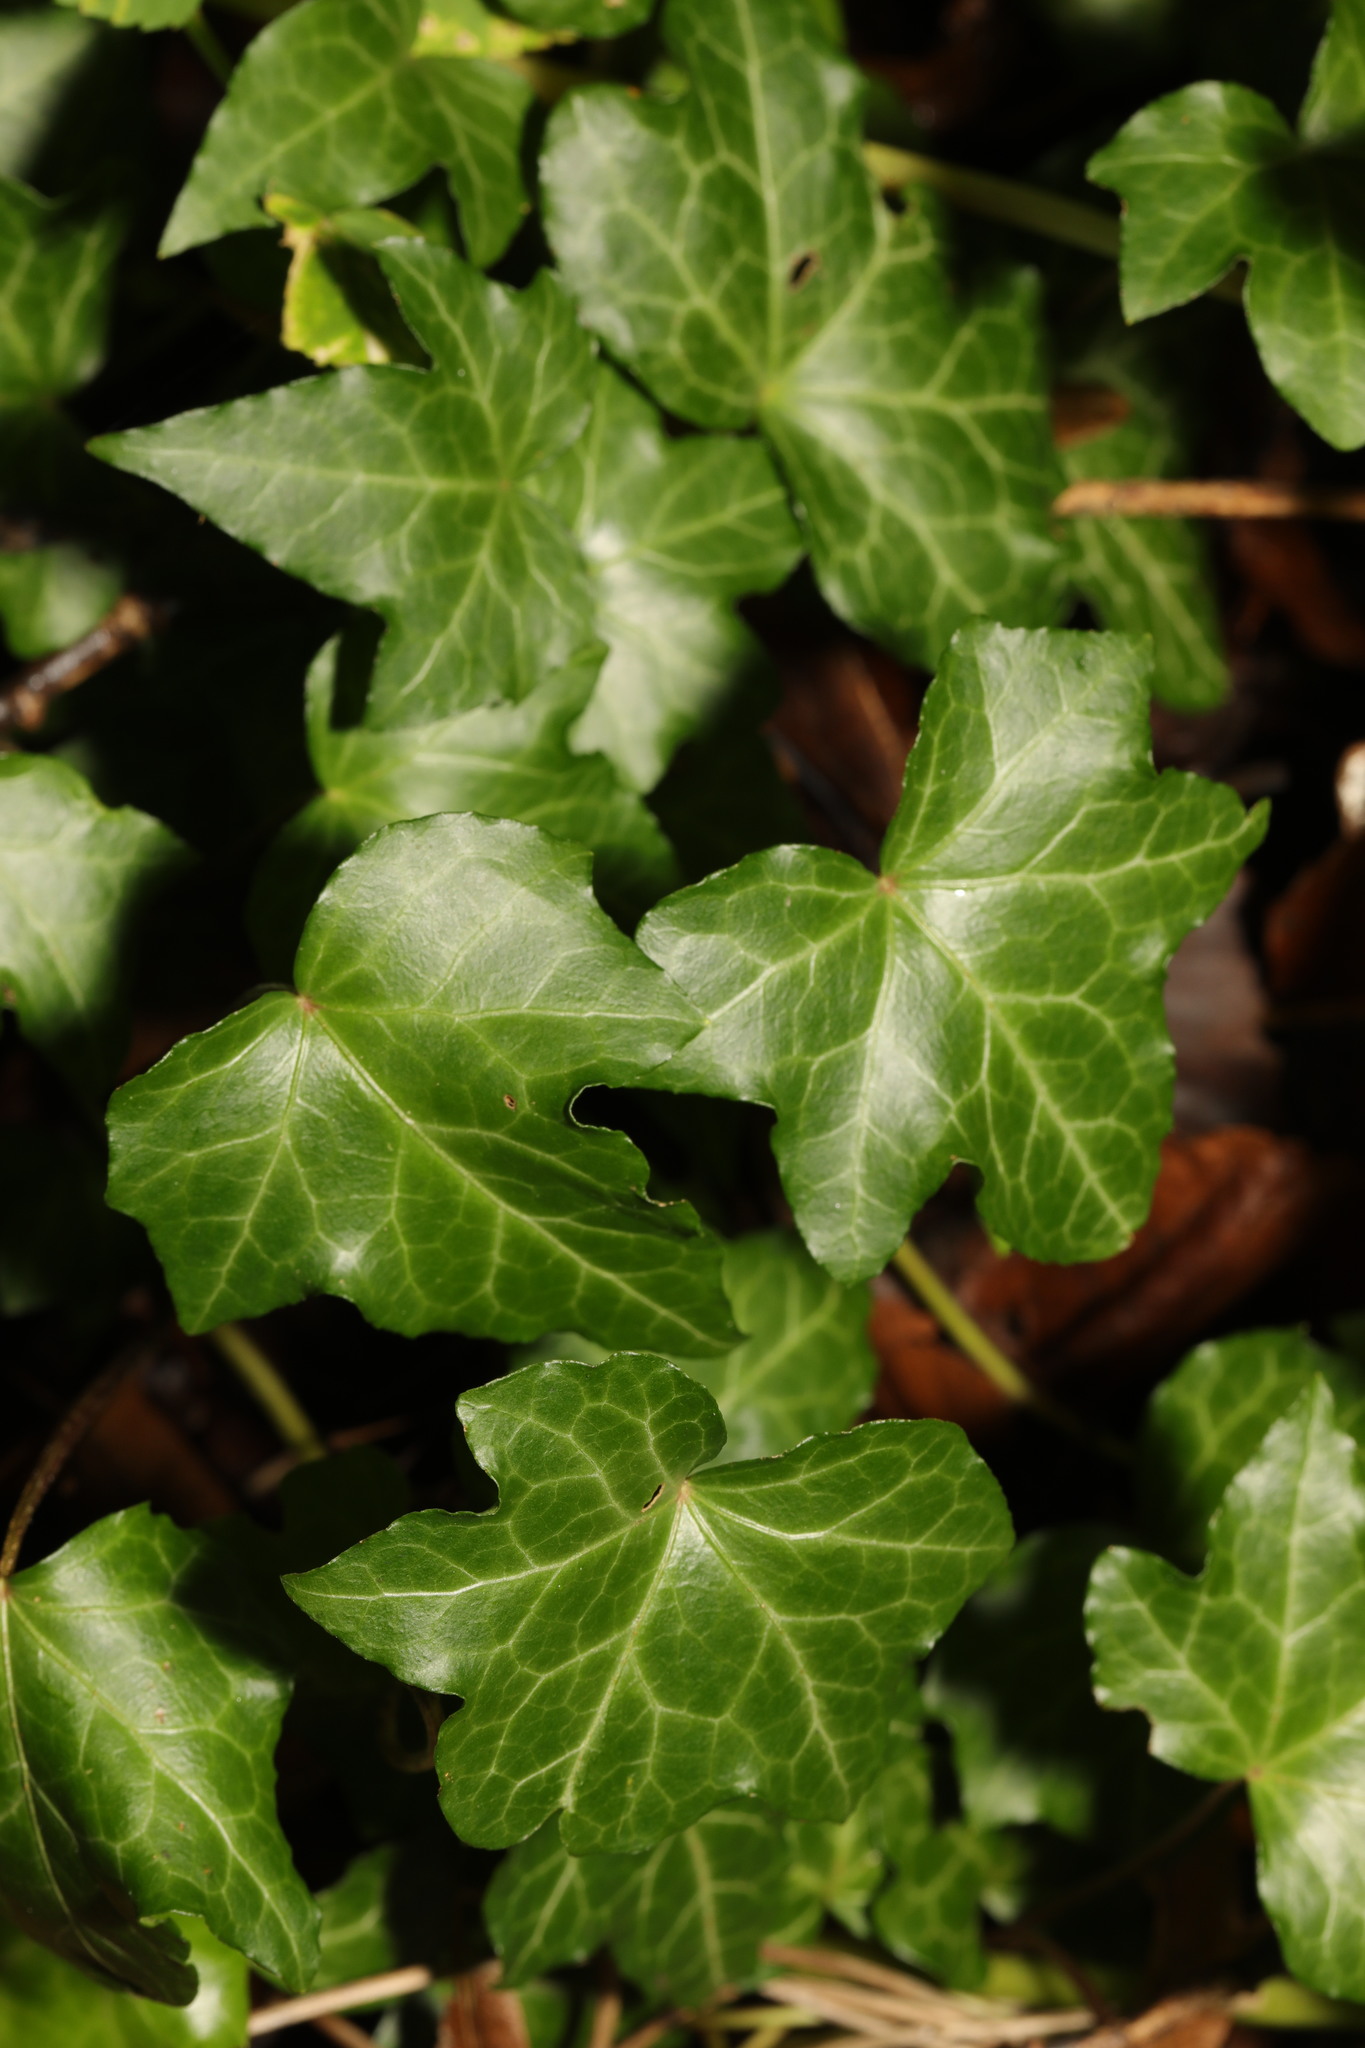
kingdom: Plantae
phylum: Tracheophyta
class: Magnoliopsida
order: Apiales
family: Araliaceae
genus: Hedera
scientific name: Hedera helix
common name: Ivy
